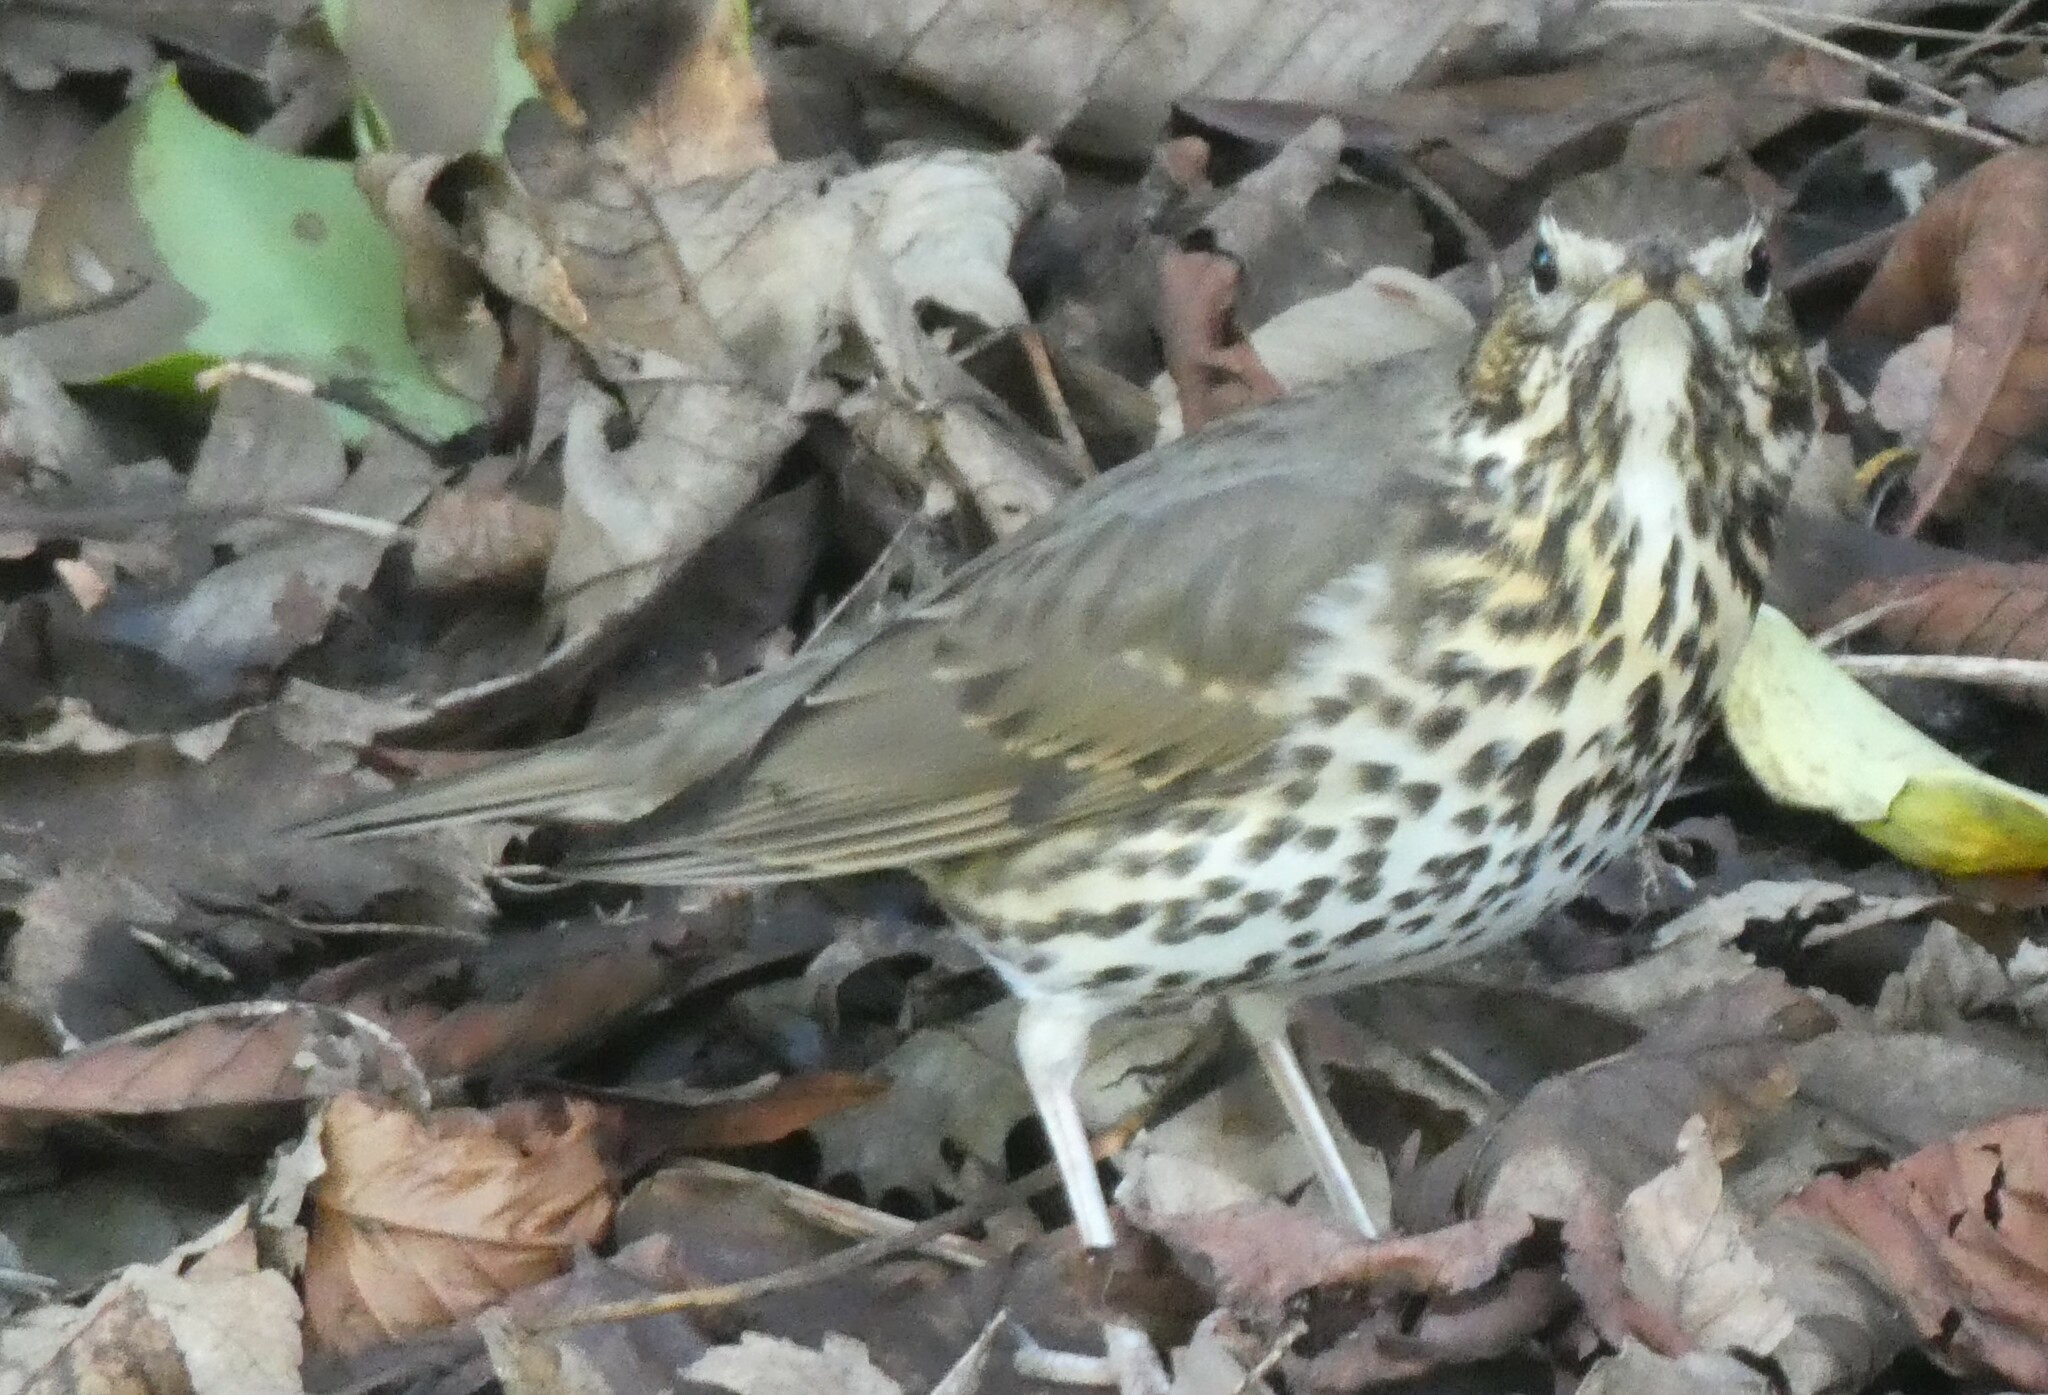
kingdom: Animalia
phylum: Chordata
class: Aves
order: Passeriformes
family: Turdidae
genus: Turdus
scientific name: Turdus philomelos
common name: Song thrush
